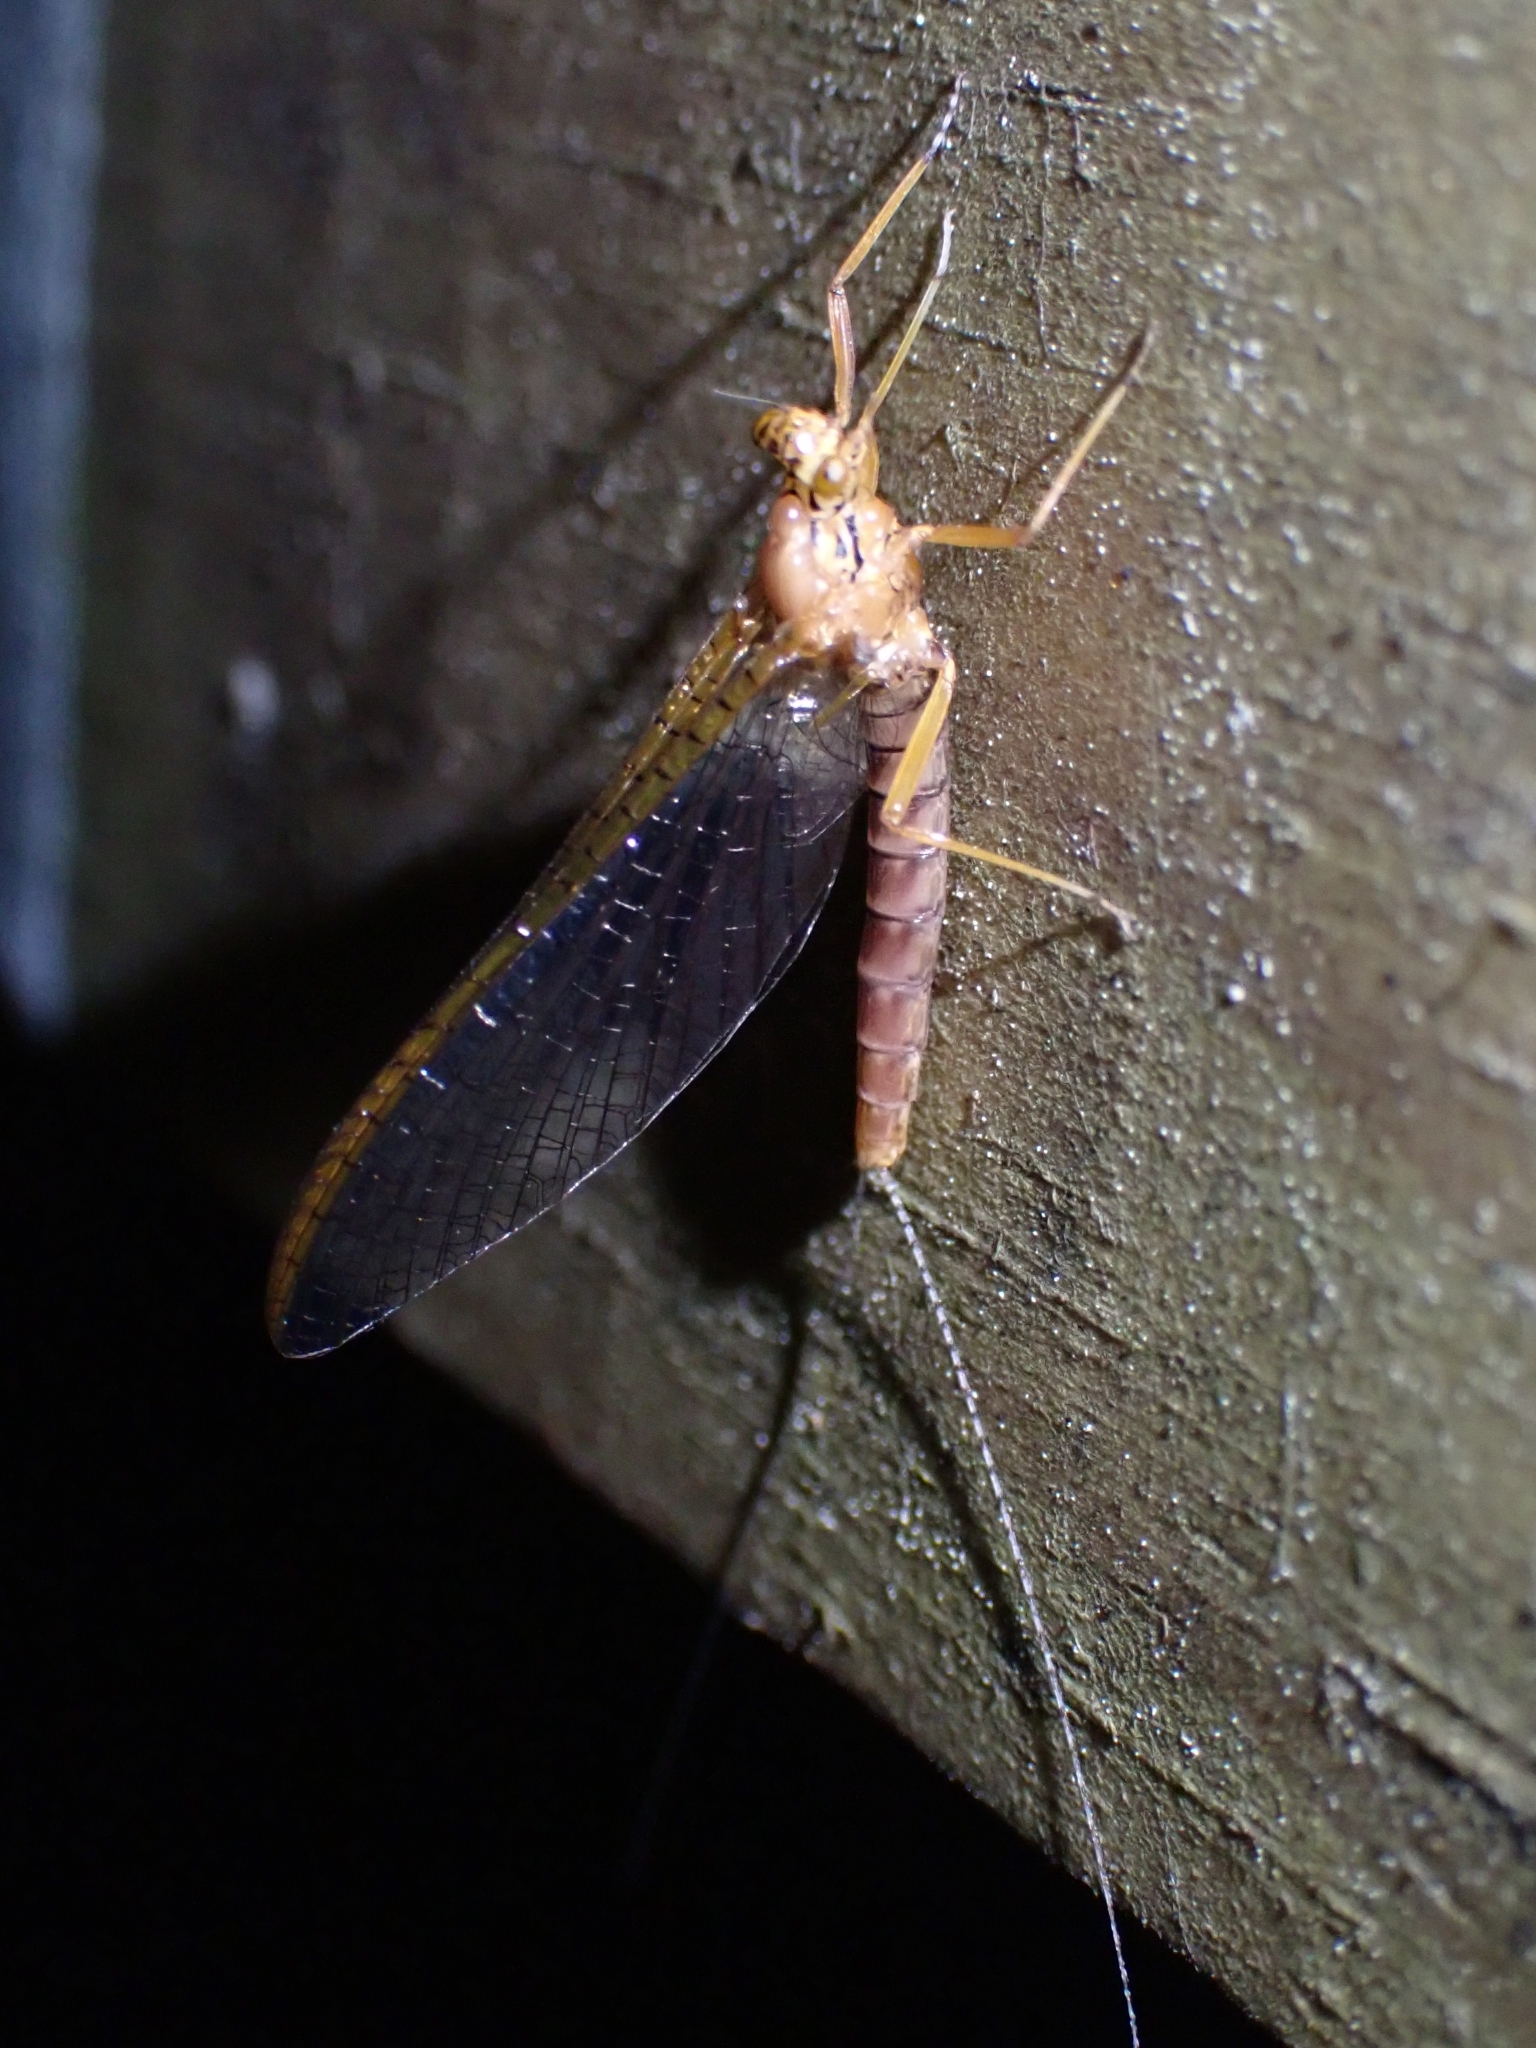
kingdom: Animalia
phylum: Arthropoda
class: Insecta
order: Ephemeroptera
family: Leptophlebiidae
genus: Acanthophlebia
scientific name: Acanthophlebia cruentata
